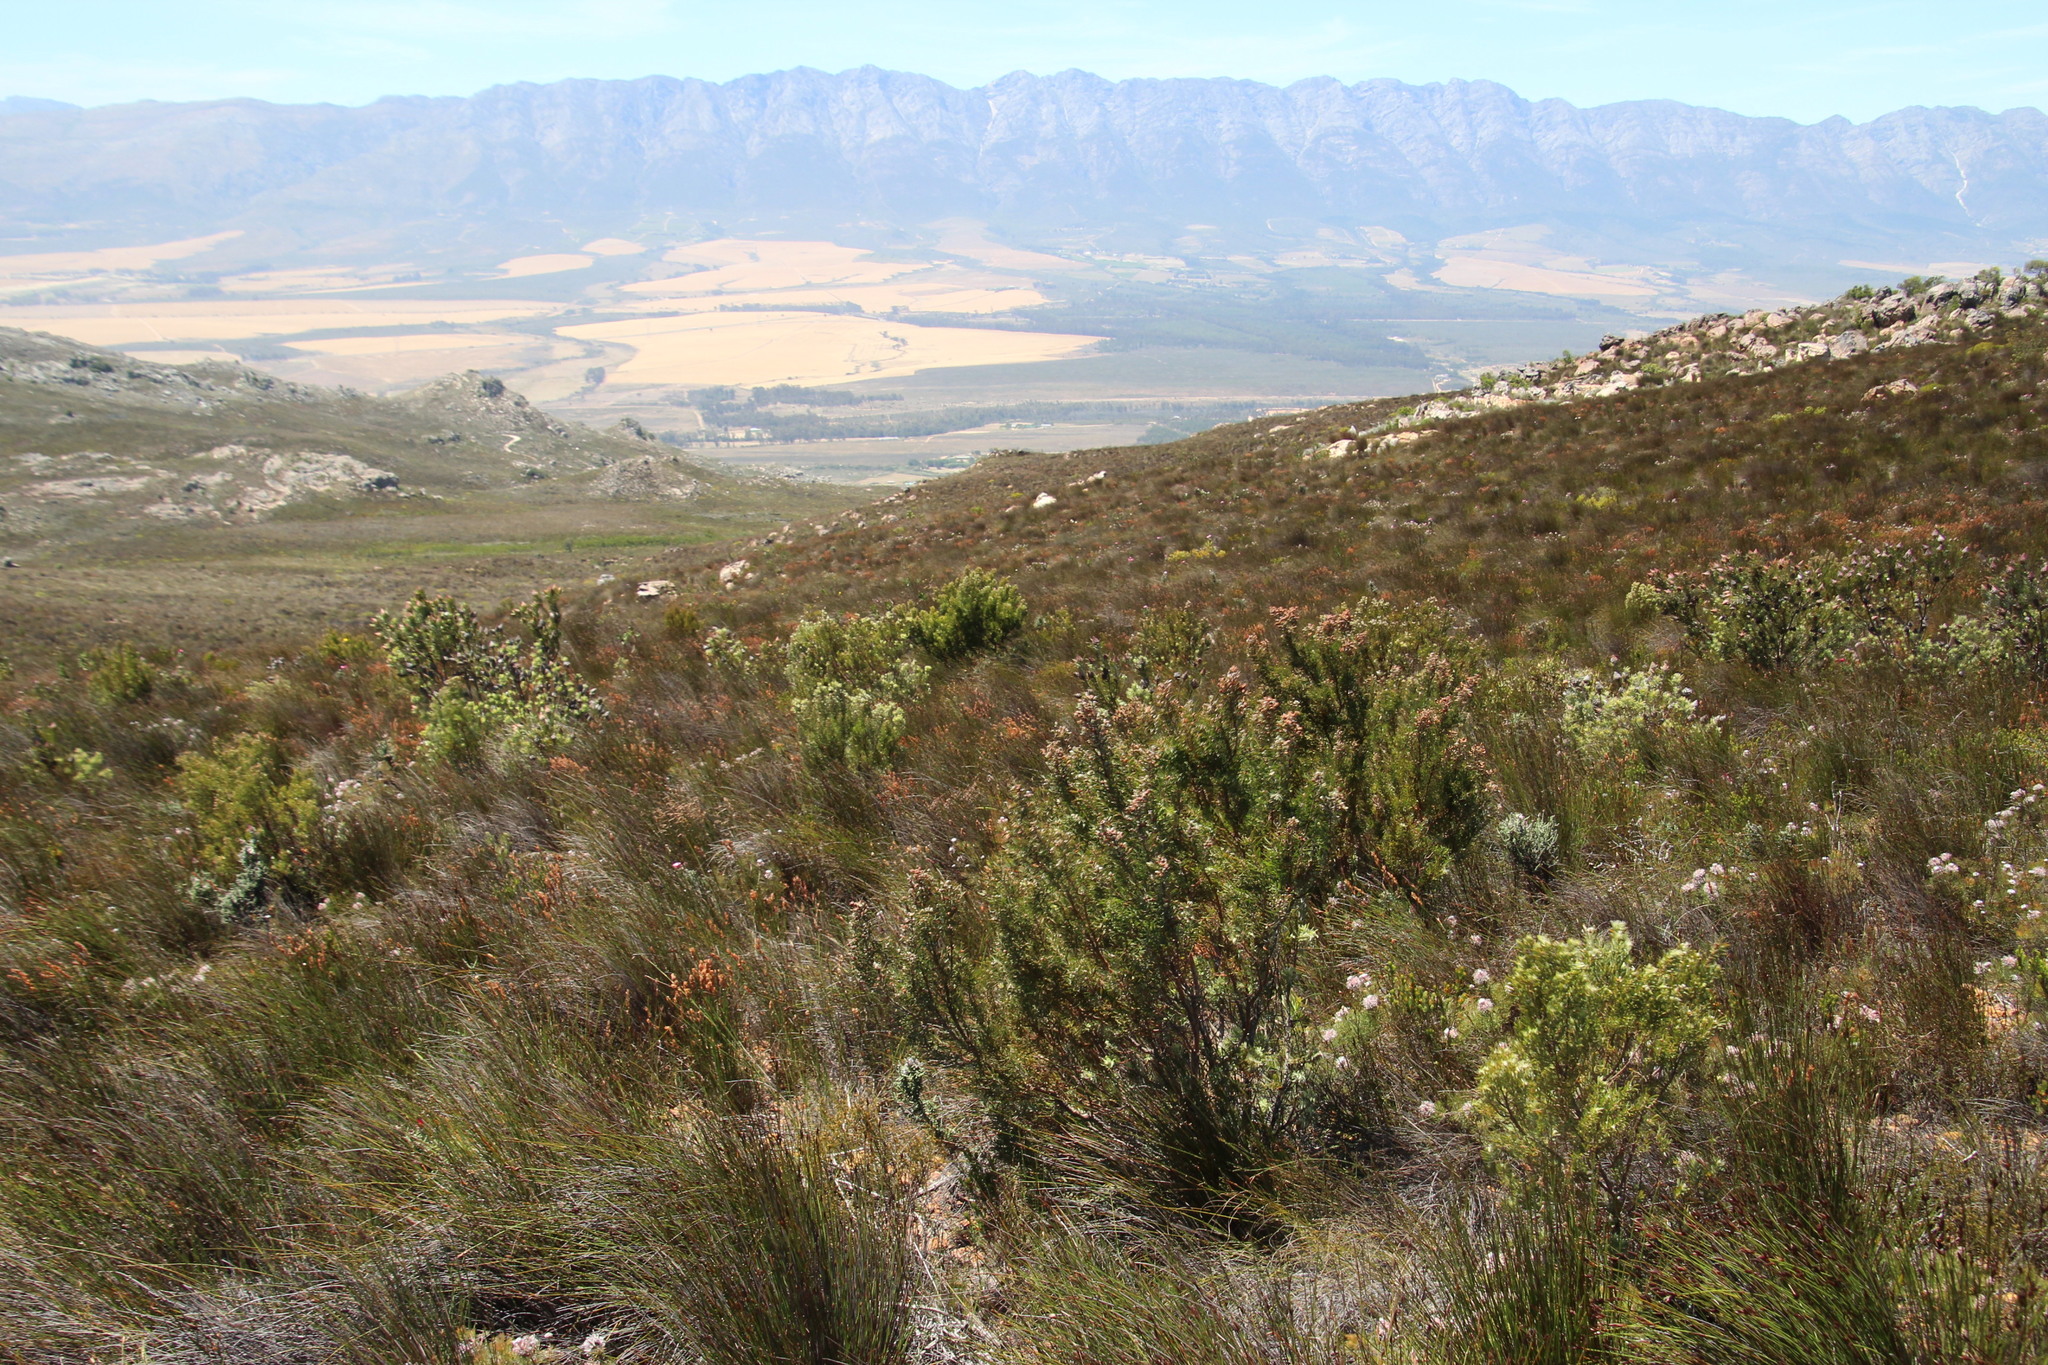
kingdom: Plantae
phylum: Tracheophyta
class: Magnoliopsida
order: Proteales
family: Proteaceae
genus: Leucadendron
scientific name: Leucadendron rubrum
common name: Spinning top
